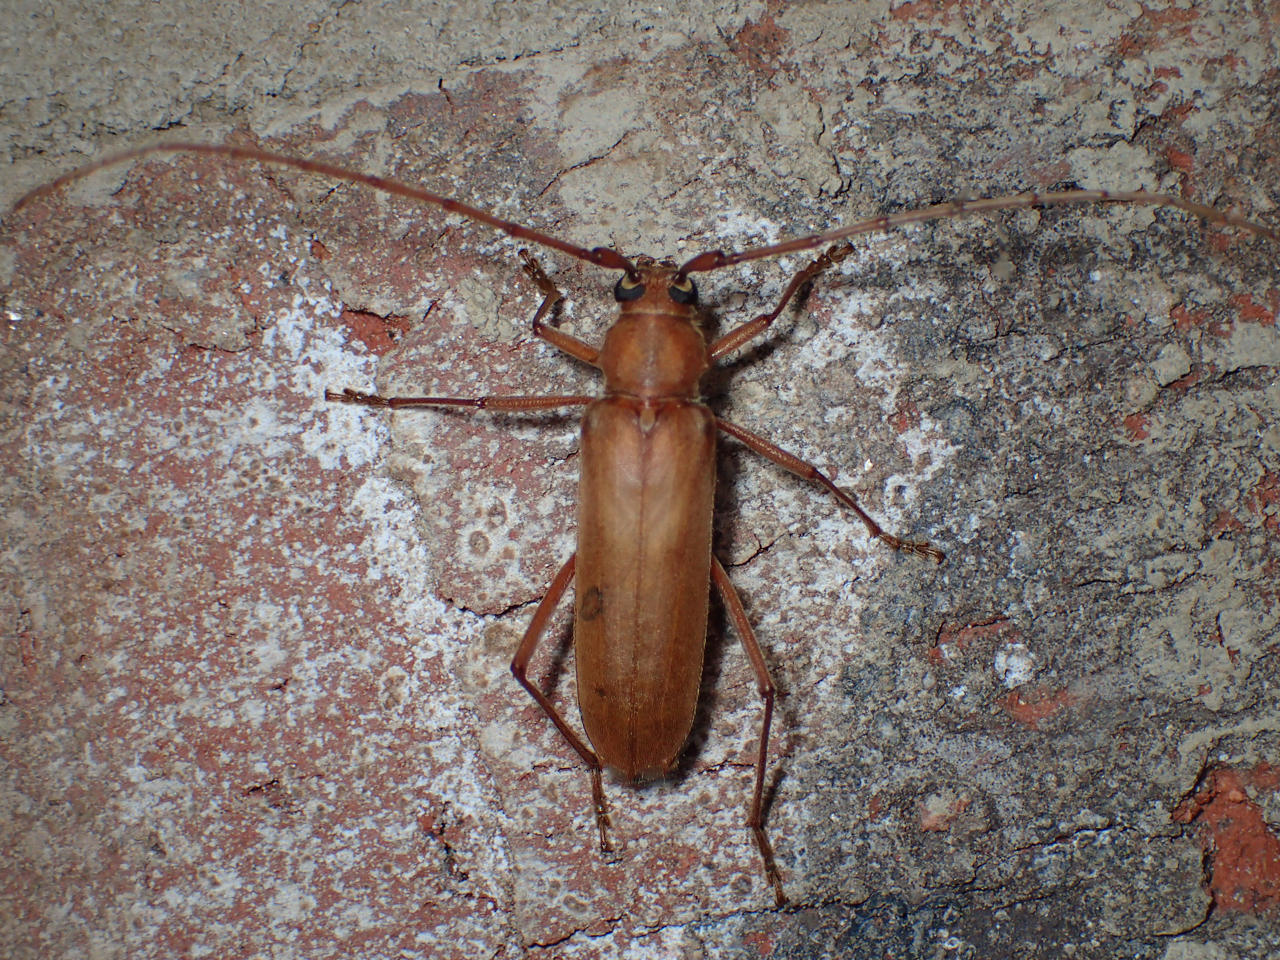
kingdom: Animalia
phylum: Arthropoda
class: Insecta
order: Coleoptera
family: Cerambycidae
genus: Knulliana
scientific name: Knulliana cincta
